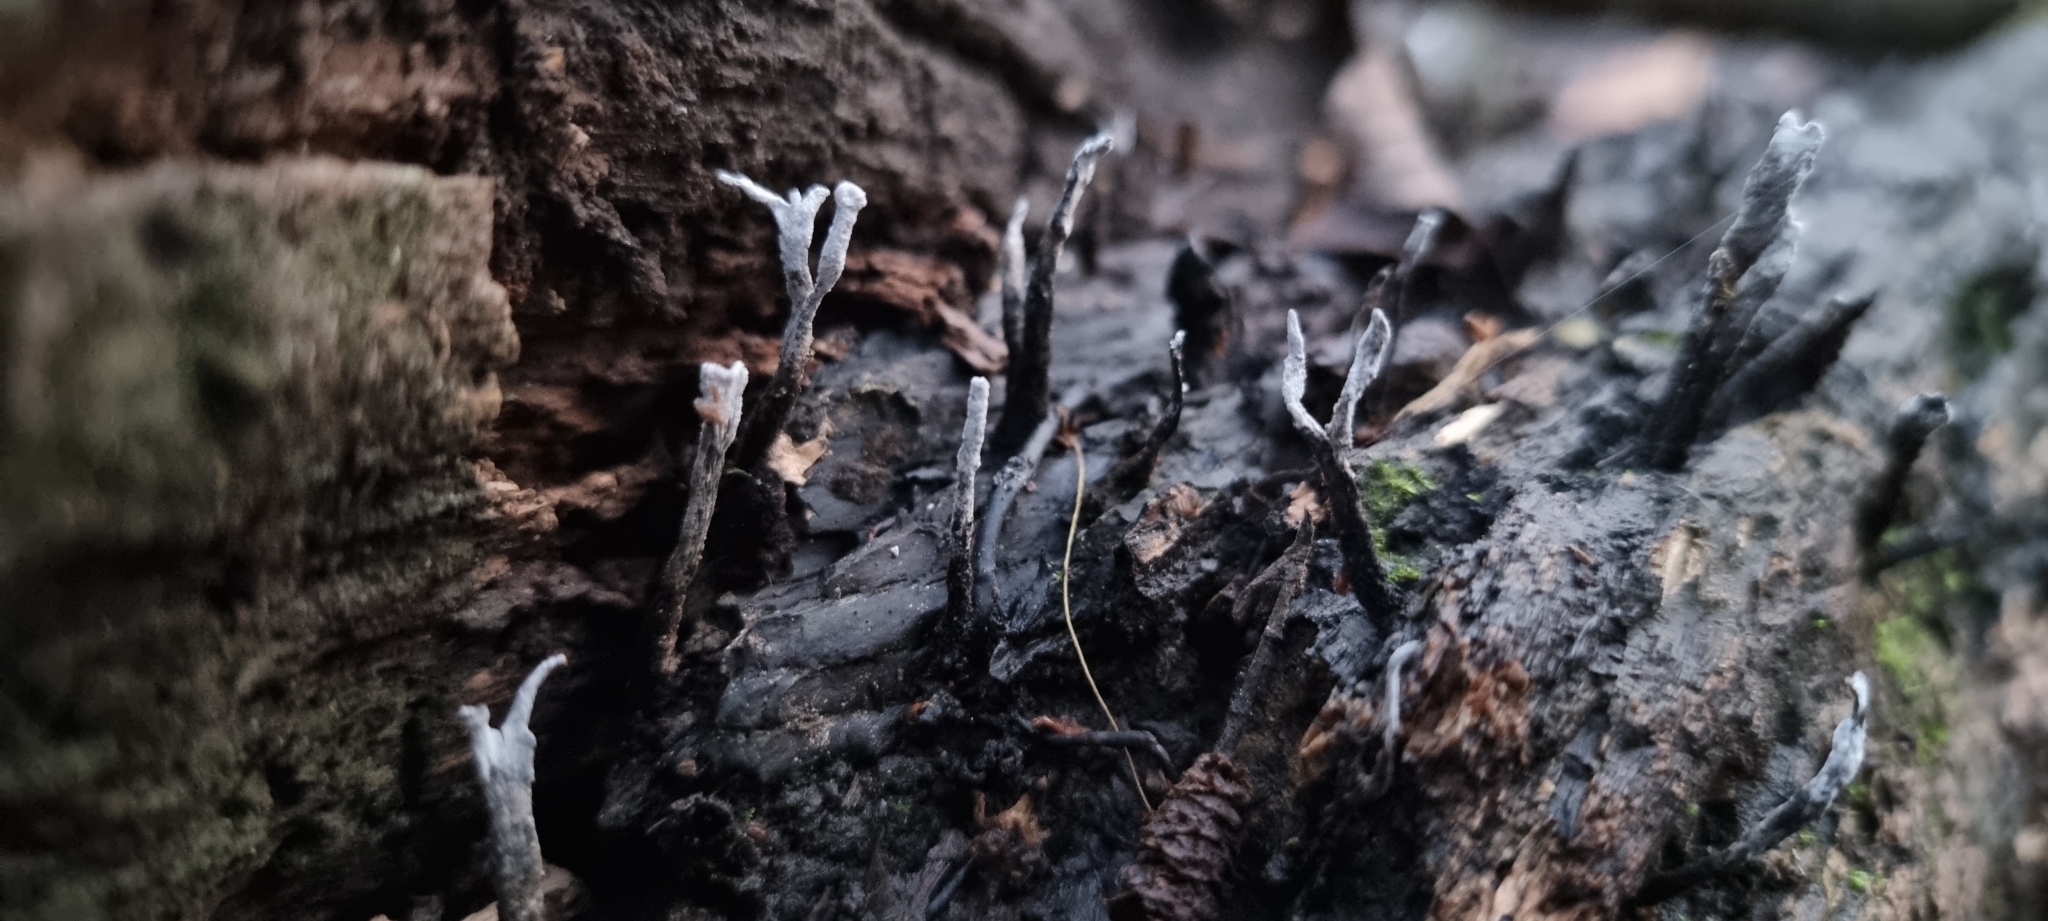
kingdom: Fungi
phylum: Ascomycota
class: Sordariomycetes
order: Xylariales
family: Xylariaceae
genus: Xylaria
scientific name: Xylaria hypoxylon
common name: Candle-snuff fungus
